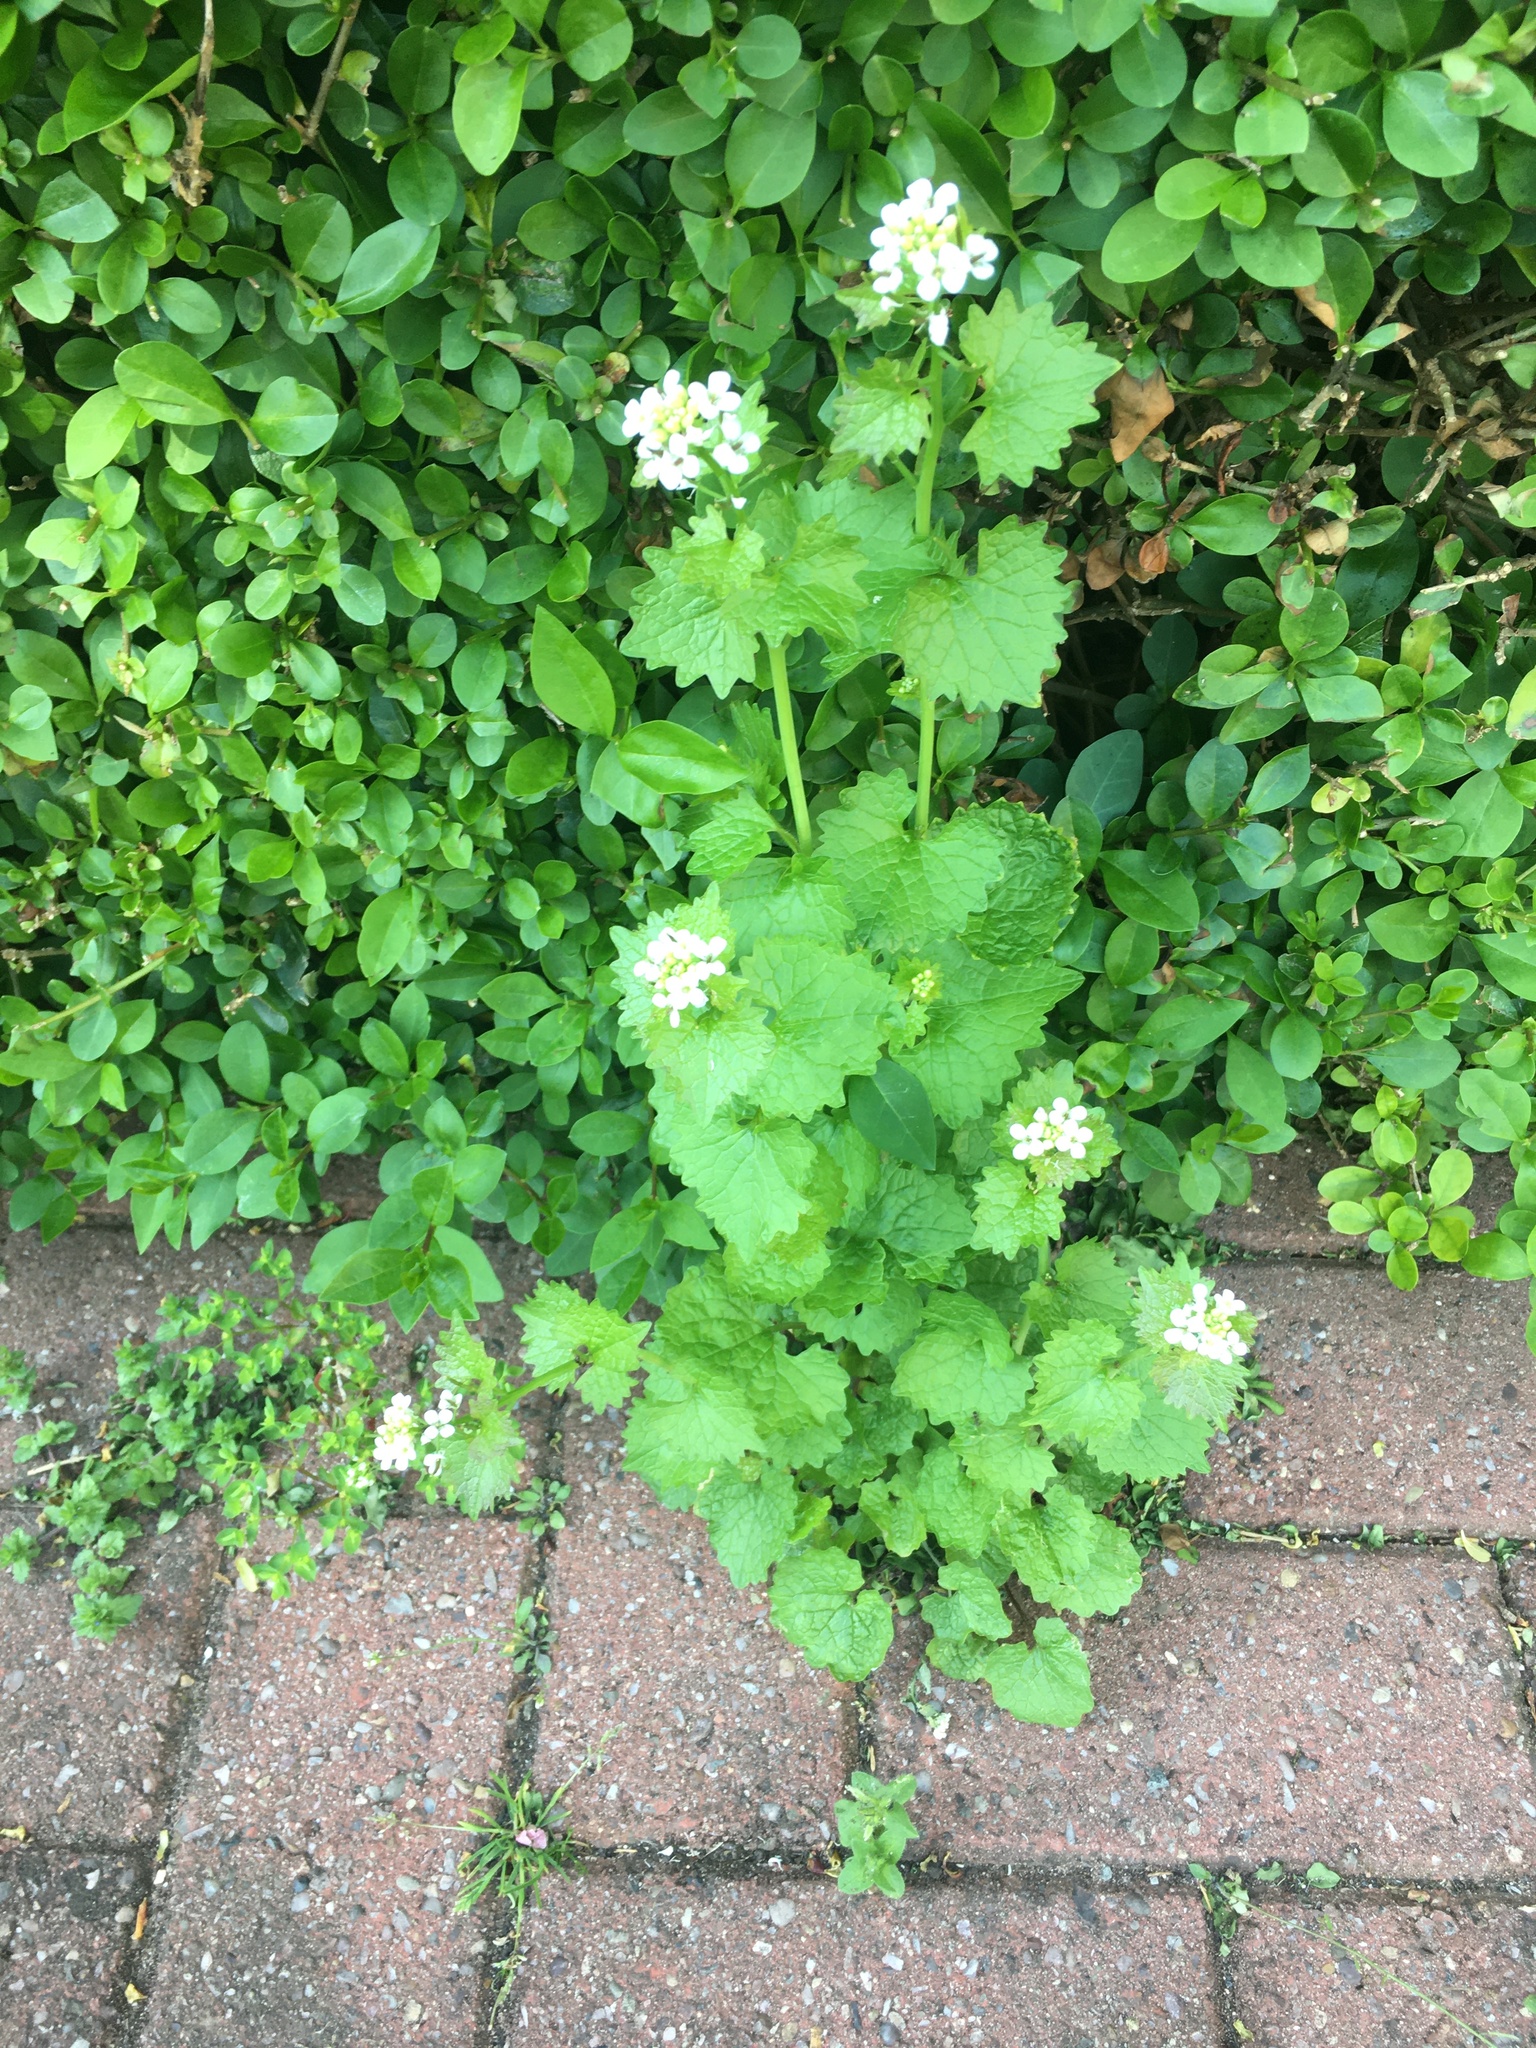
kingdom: Plantae
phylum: Tracheophyta
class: Magnoliopsida
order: Brassicales
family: Brassicaceae
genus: Alliaria
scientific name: Alliaria petiolata
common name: Garlic mustard
